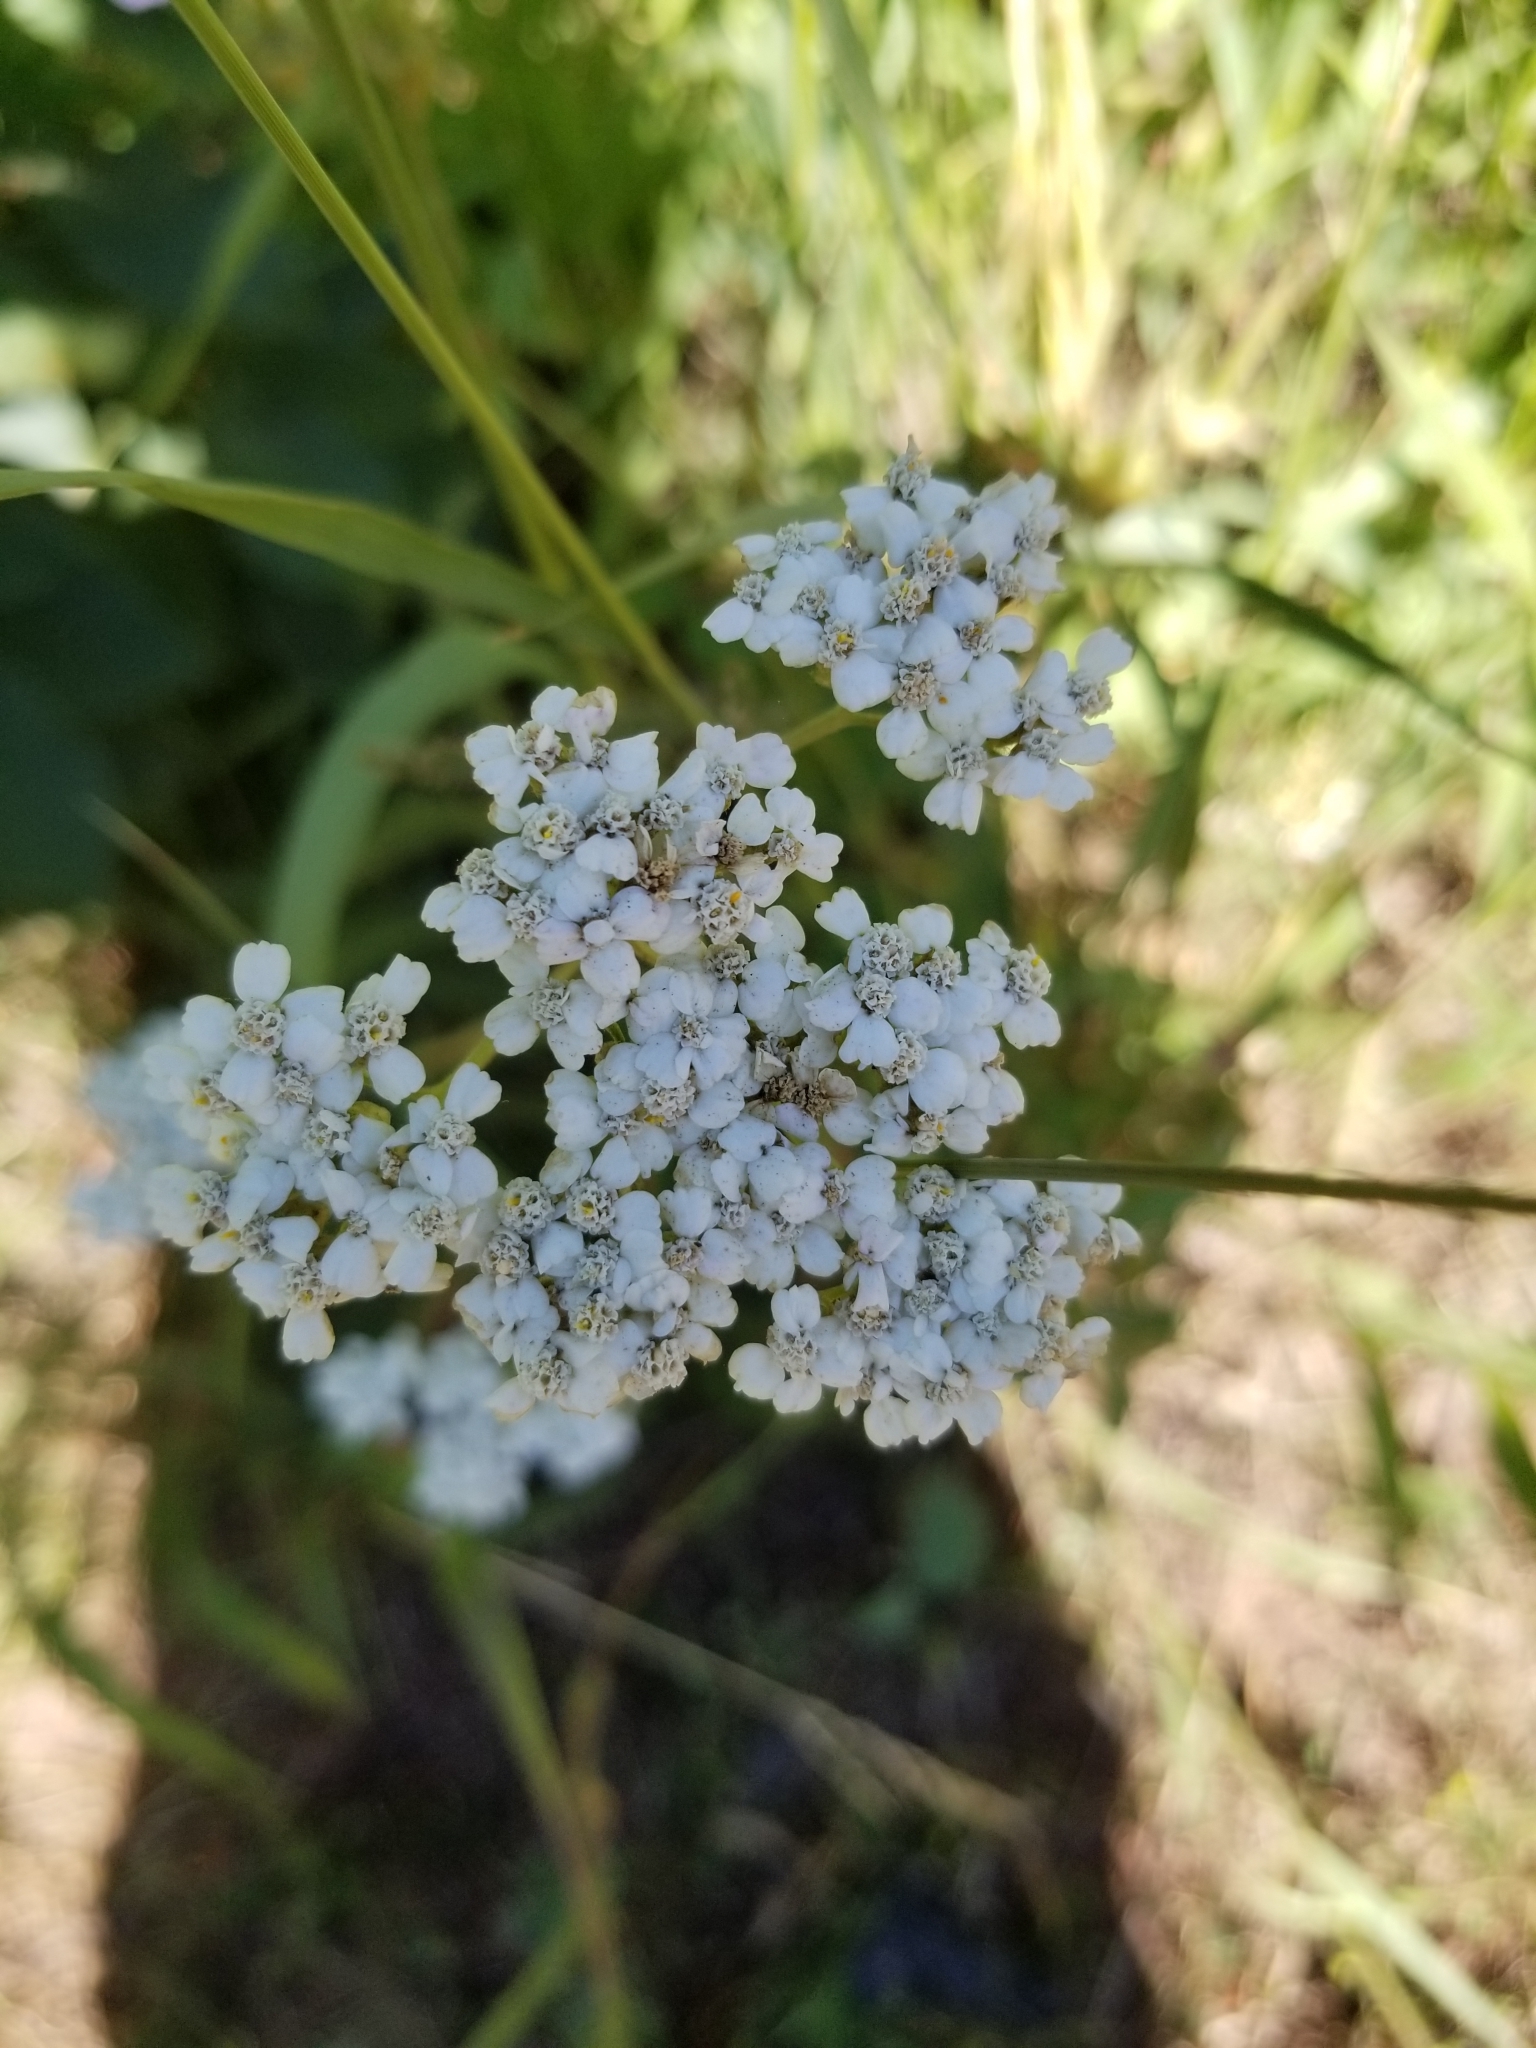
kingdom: Plantae
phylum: Tracheophyta
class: Magnoliopsida
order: Asterales
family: Asteraceae
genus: Achillea
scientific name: Achillea millefolium
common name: Yarrow
